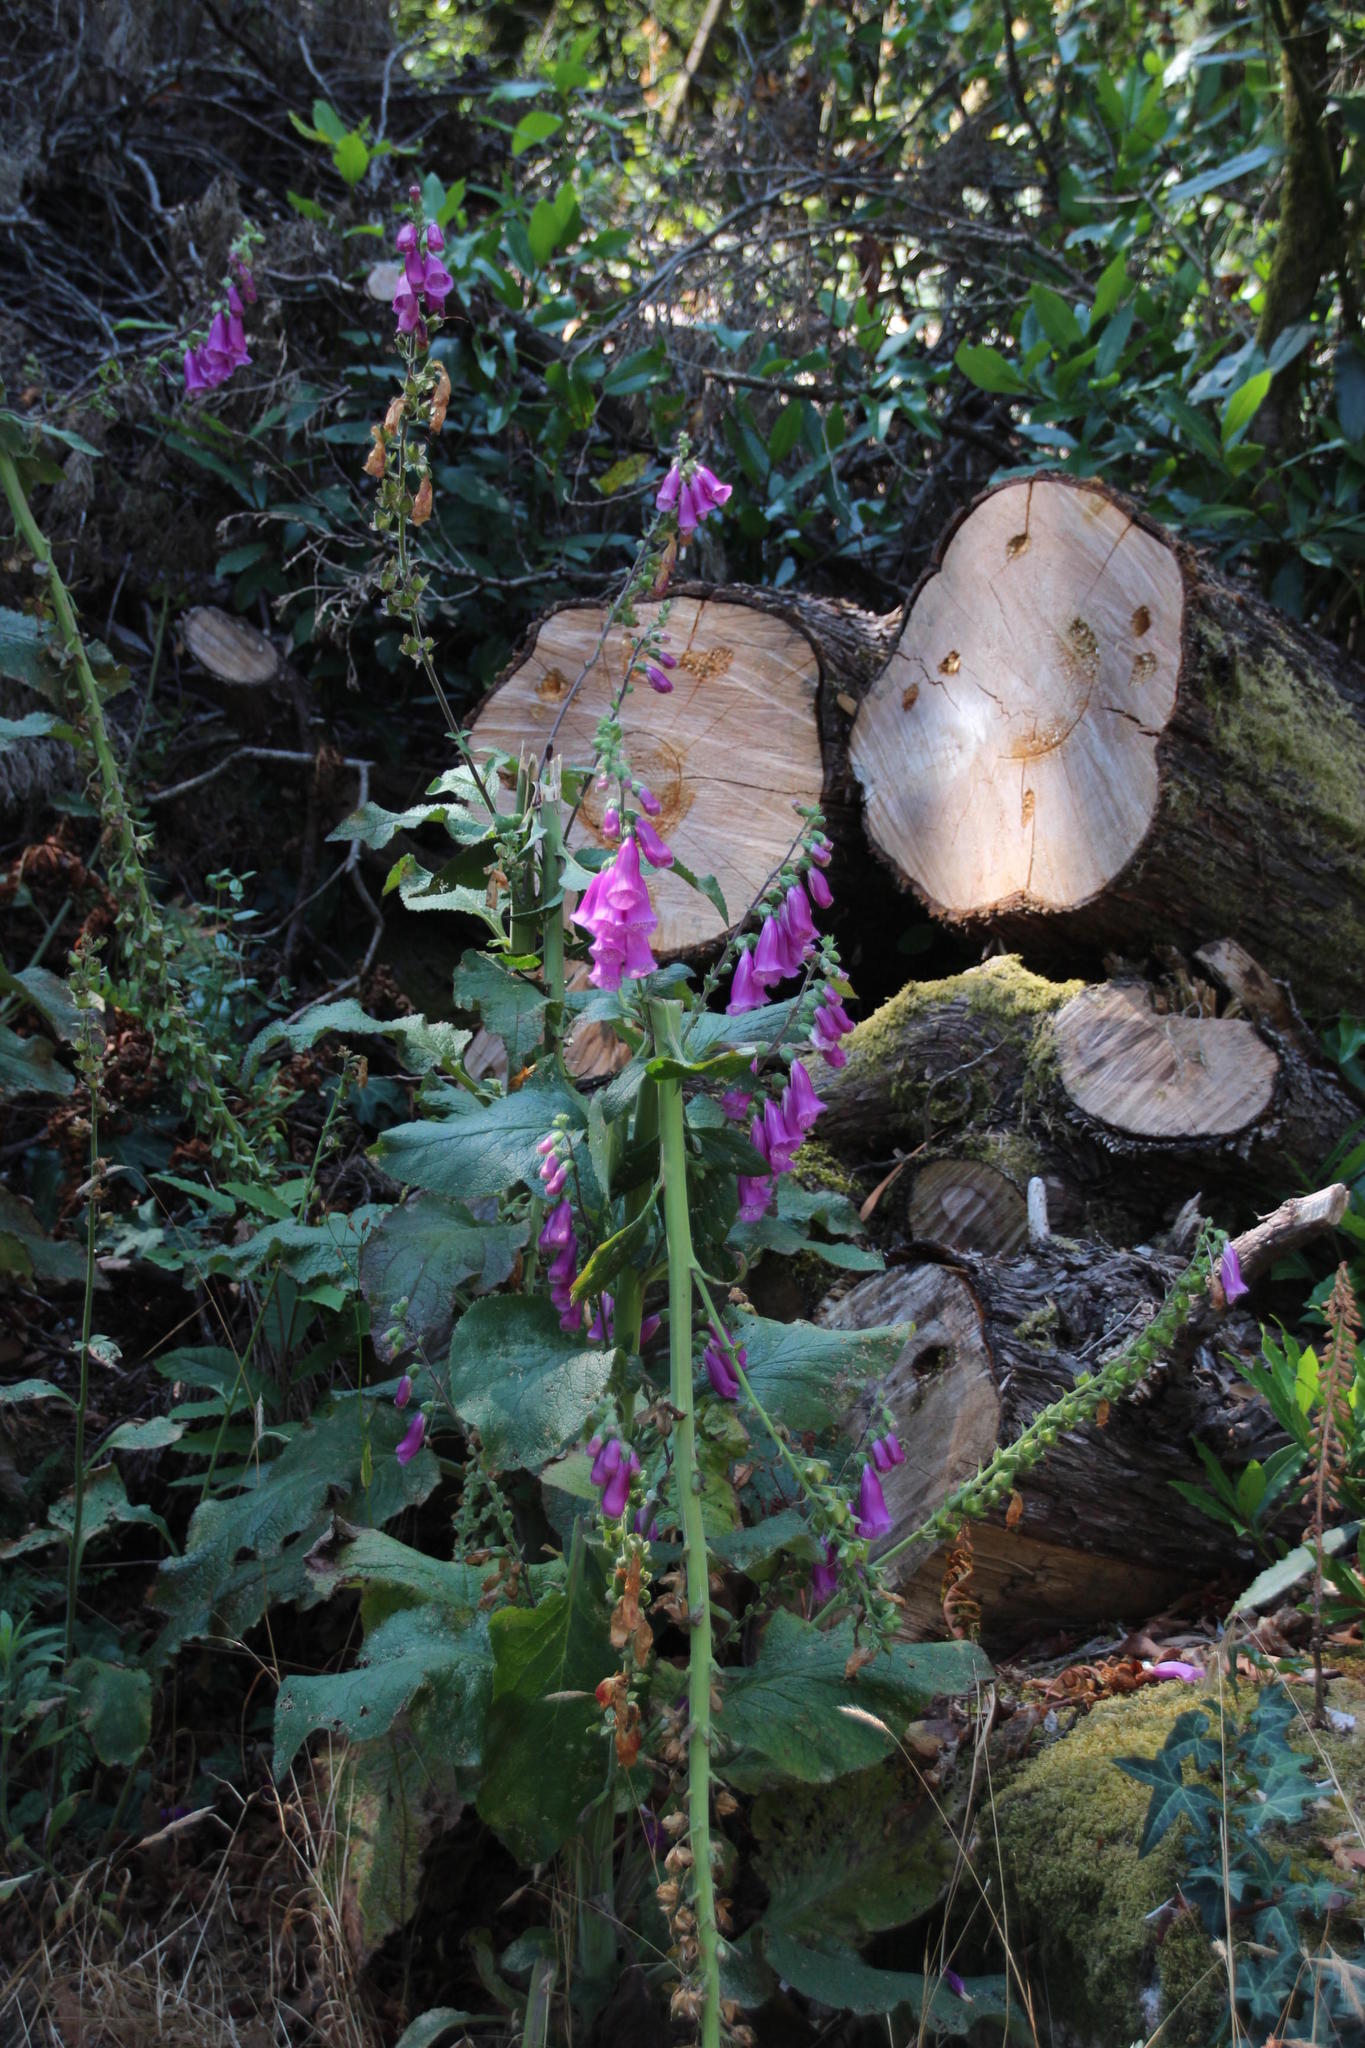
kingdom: Plantae
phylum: Tracheophyta
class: Magnoliopsida
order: Lamiales
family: Plantaginaceae
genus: Digitalis
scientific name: Digitalis purpurea
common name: Foxglove
